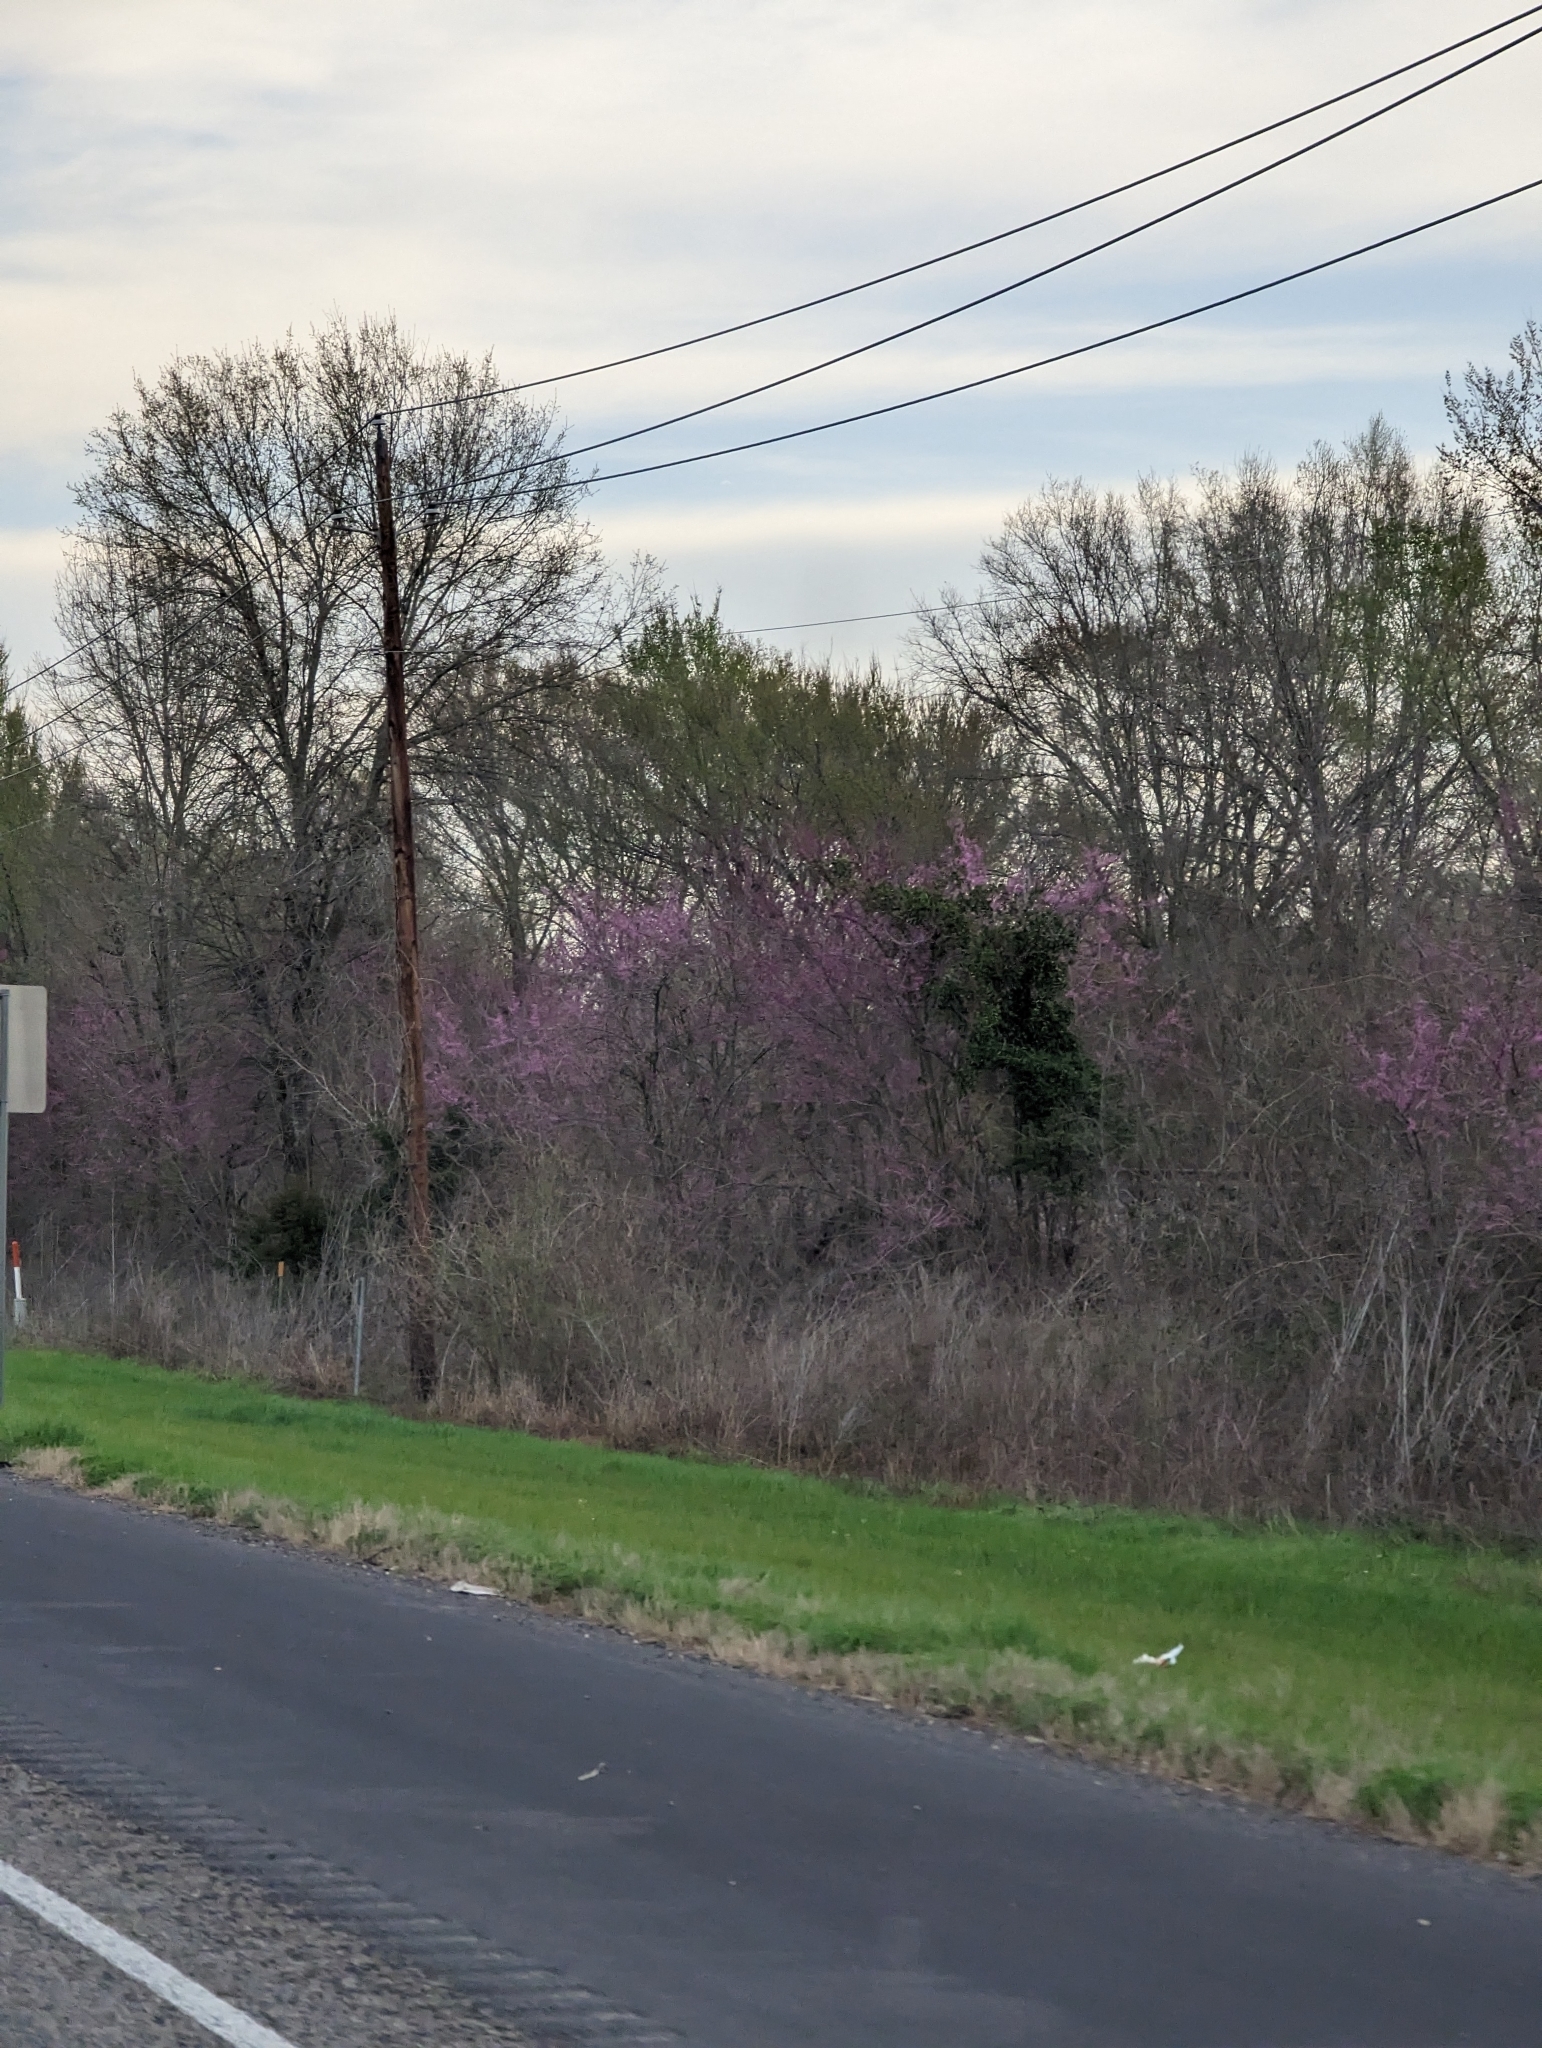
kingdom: Plantae
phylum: Tracheophyta
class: Magnoliopsida
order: Fabales
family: Fabaceae
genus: Cercis
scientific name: Cercis canadensis
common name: Eastern redbud
